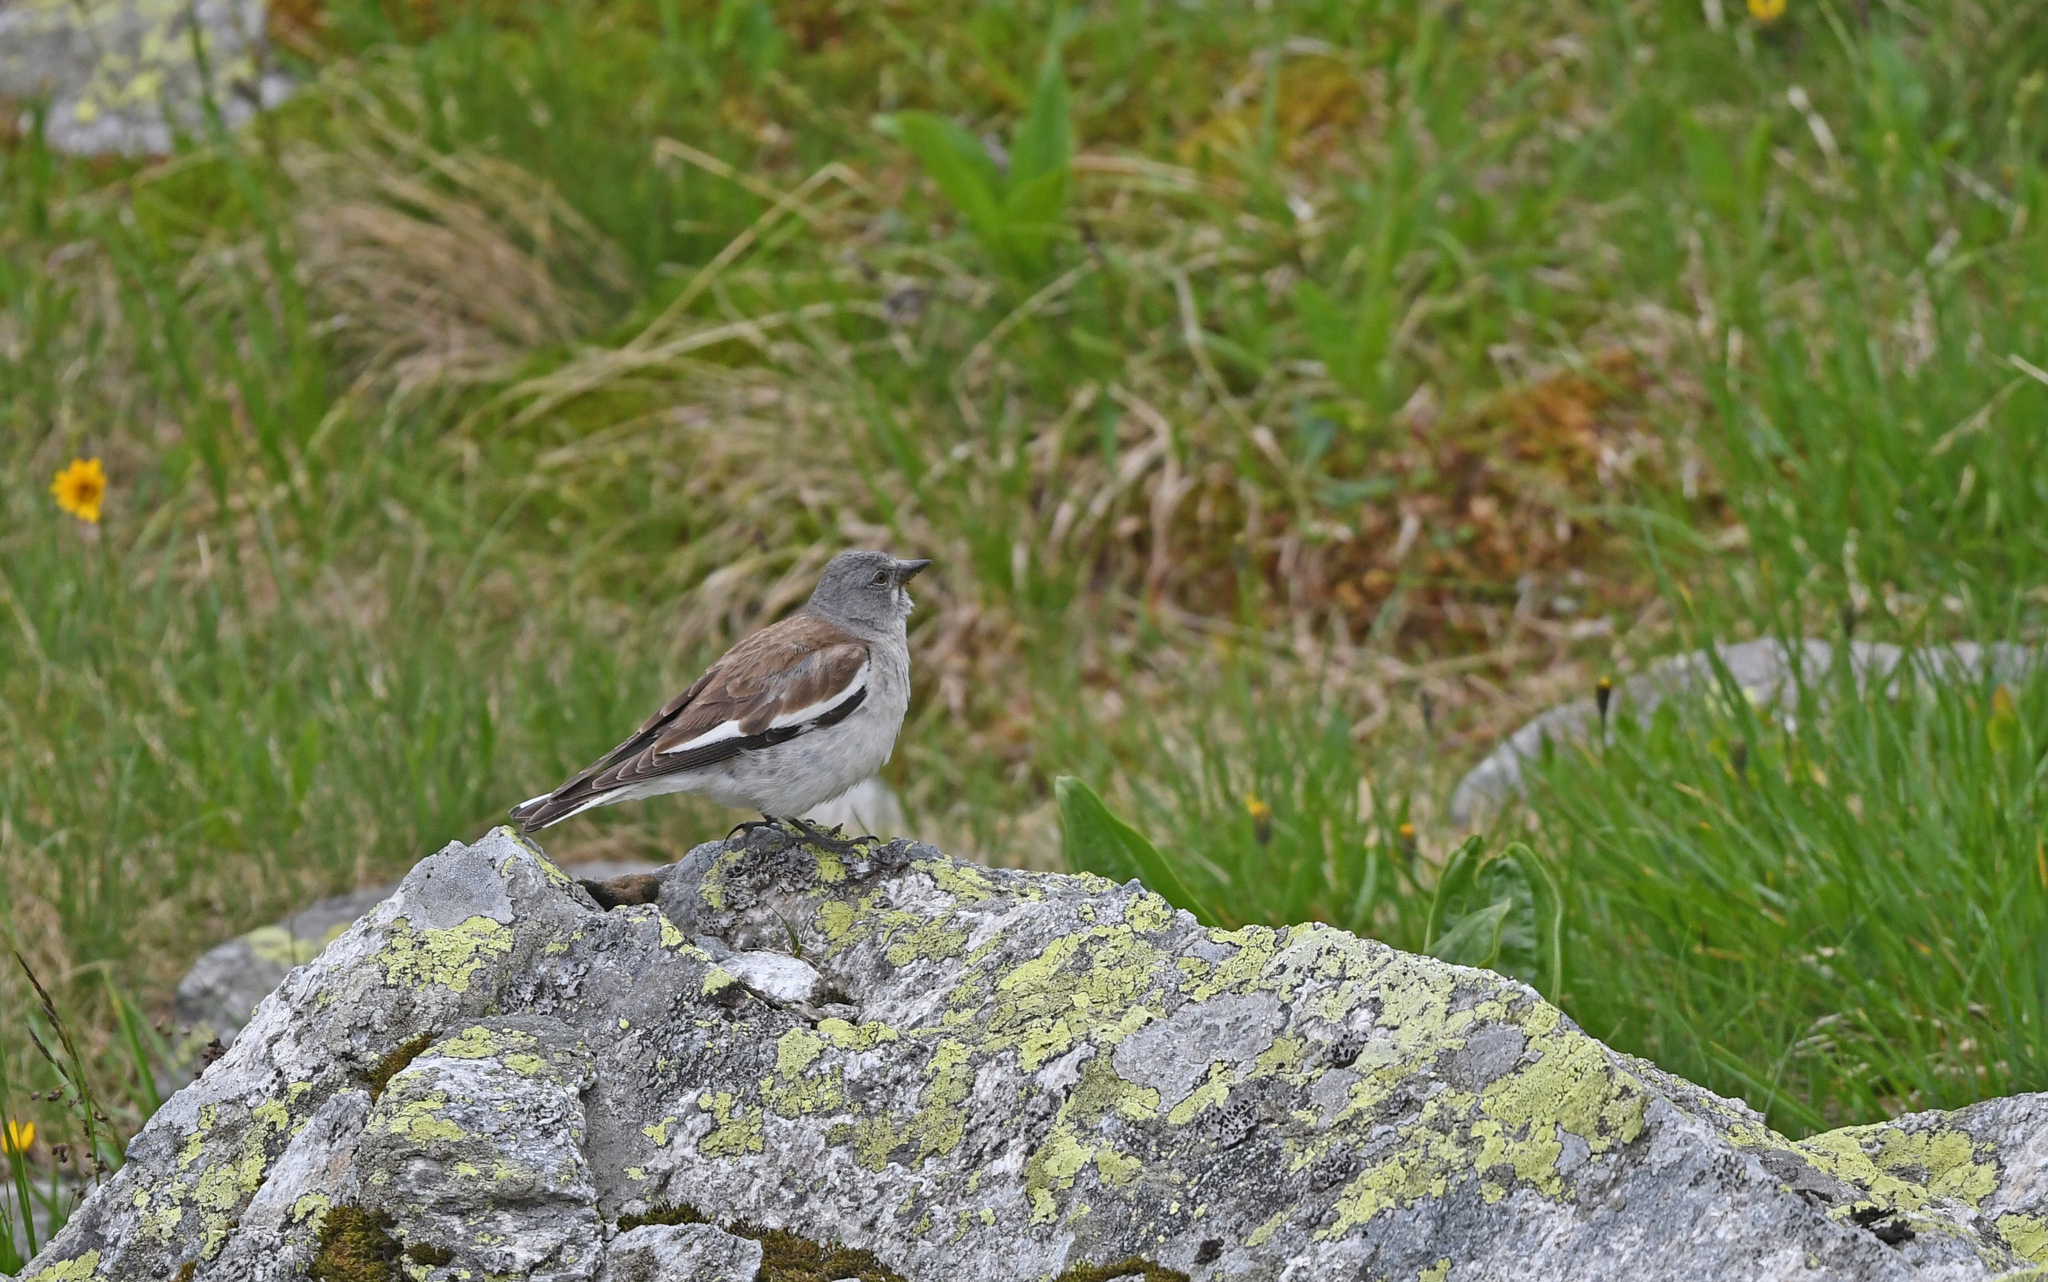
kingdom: Animalia
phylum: Chordata
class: Aves
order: Passeriformes
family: Passeridae
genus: Montifringilla
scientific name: Montifringilla nivalis
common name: White-winged snowfinch
